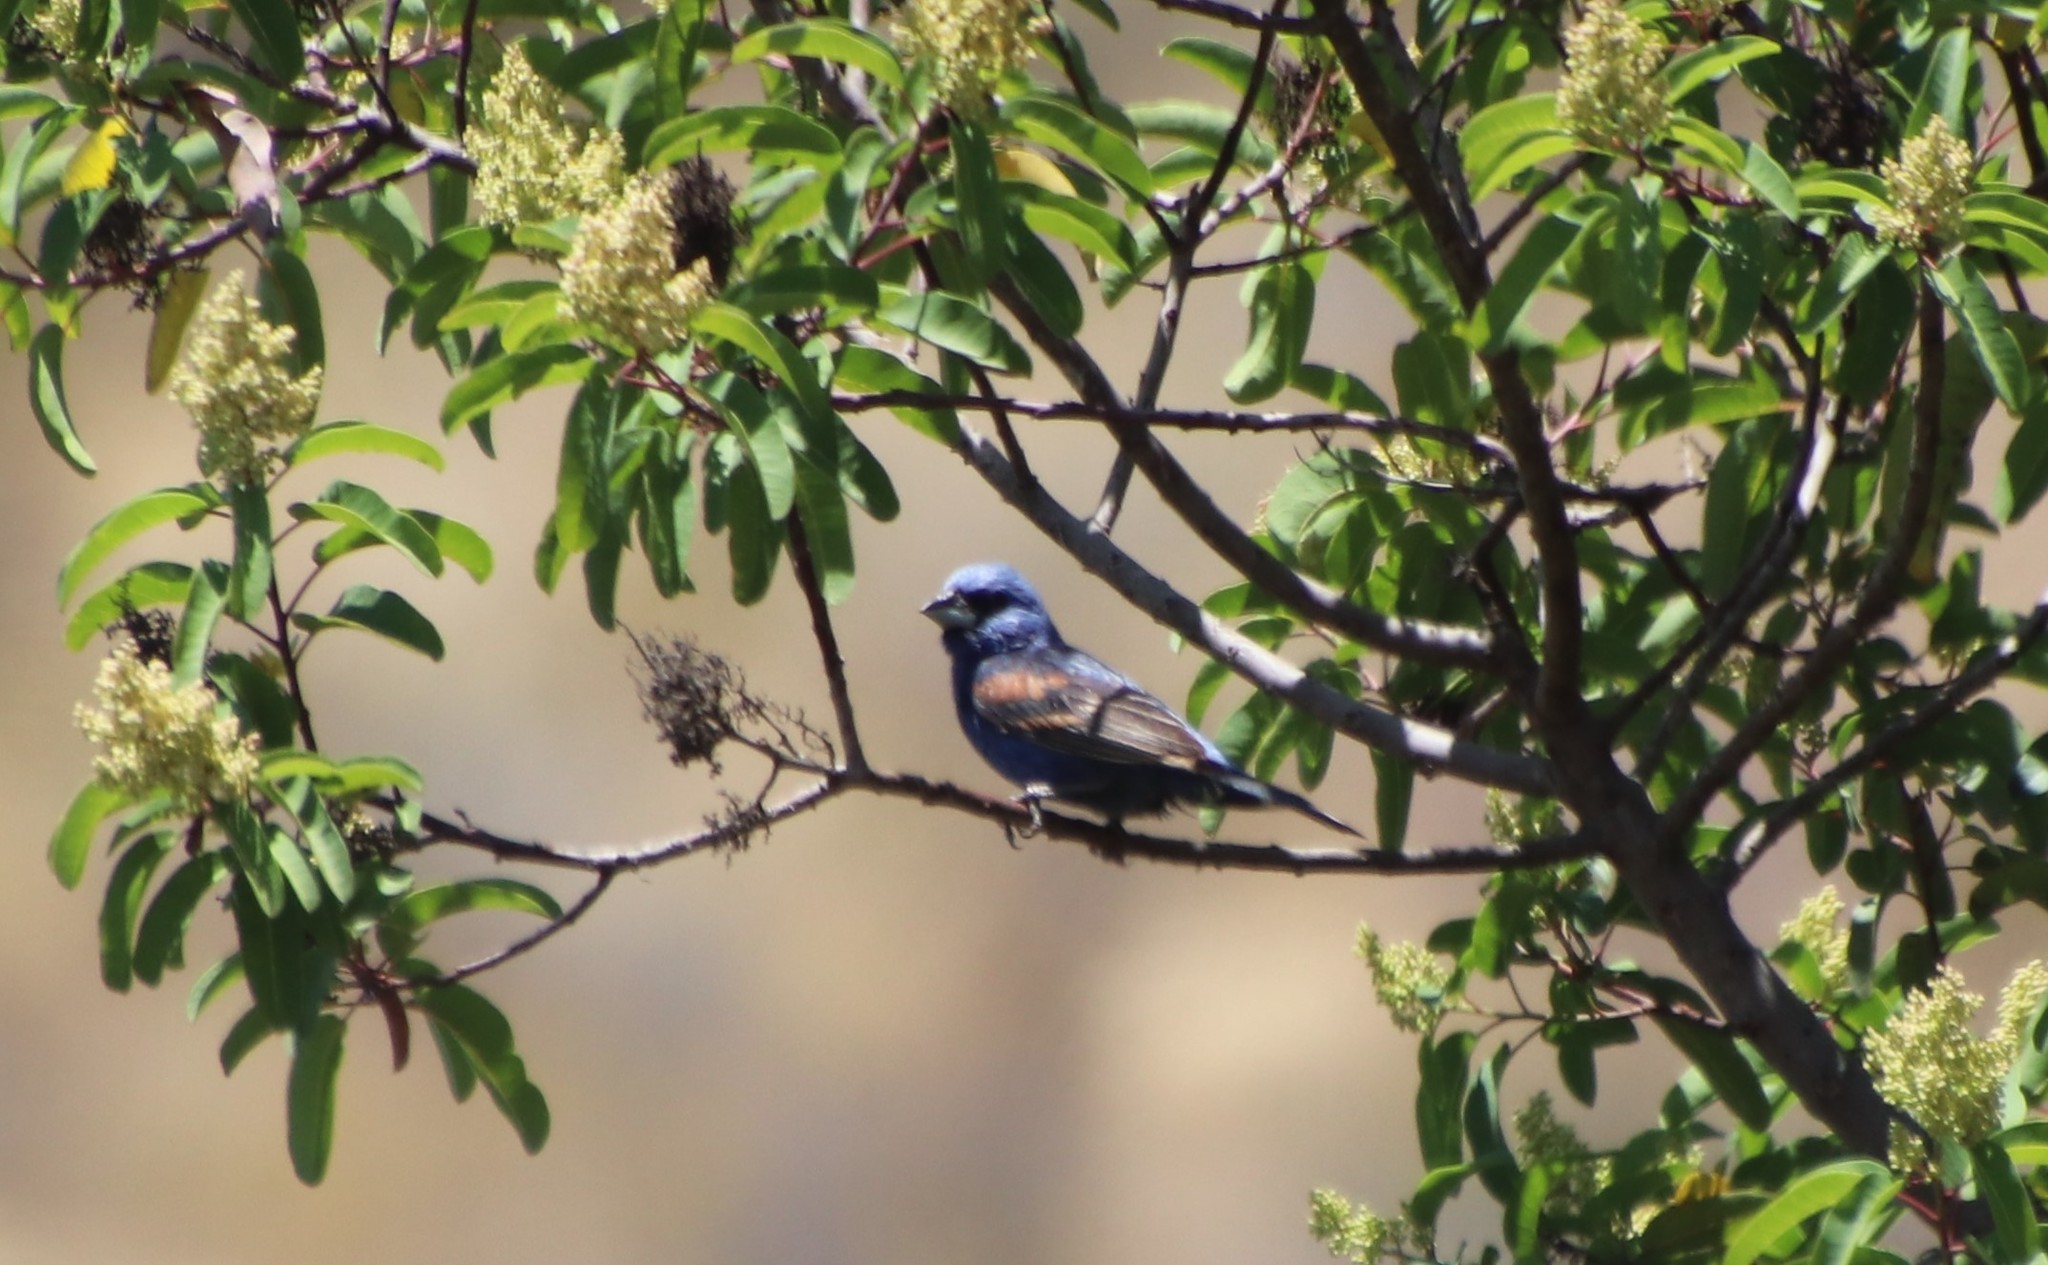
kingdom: Animalia
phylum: Chordata
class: Aves
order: Passeriformes
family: Cardinalidae
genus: Passerina
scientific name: Passerina caerulea
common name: Blue grosbeak
